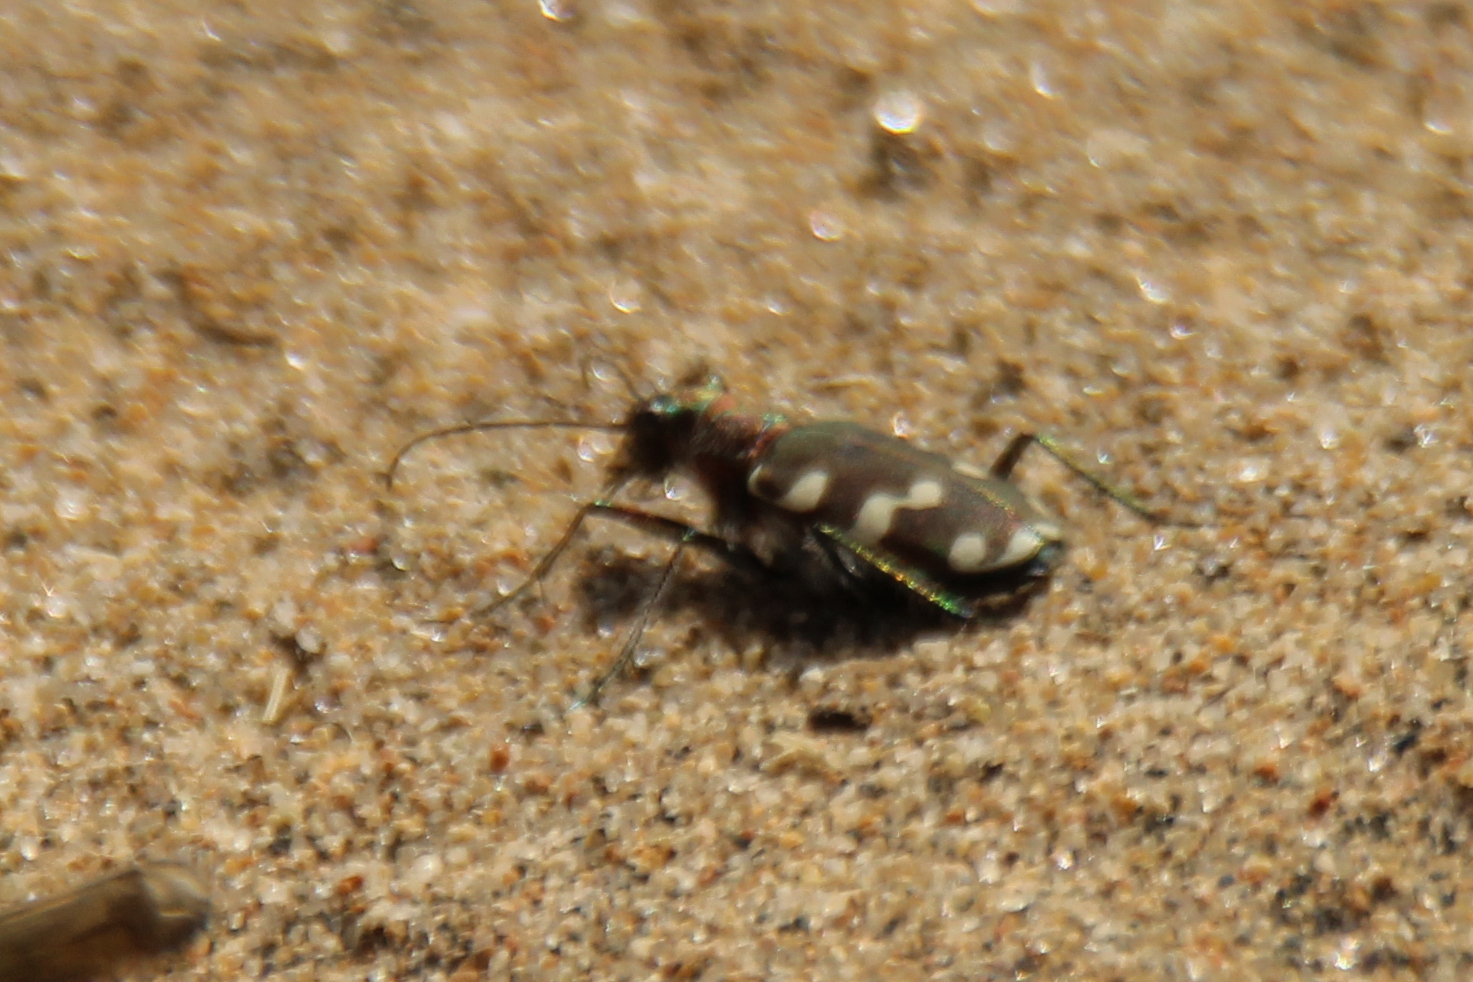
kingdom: Animalia
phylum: Arthropoda
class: Insecta
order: Coleoptera
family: Carabidae
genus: Cicindela
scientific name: Cicindela transbaicalica
